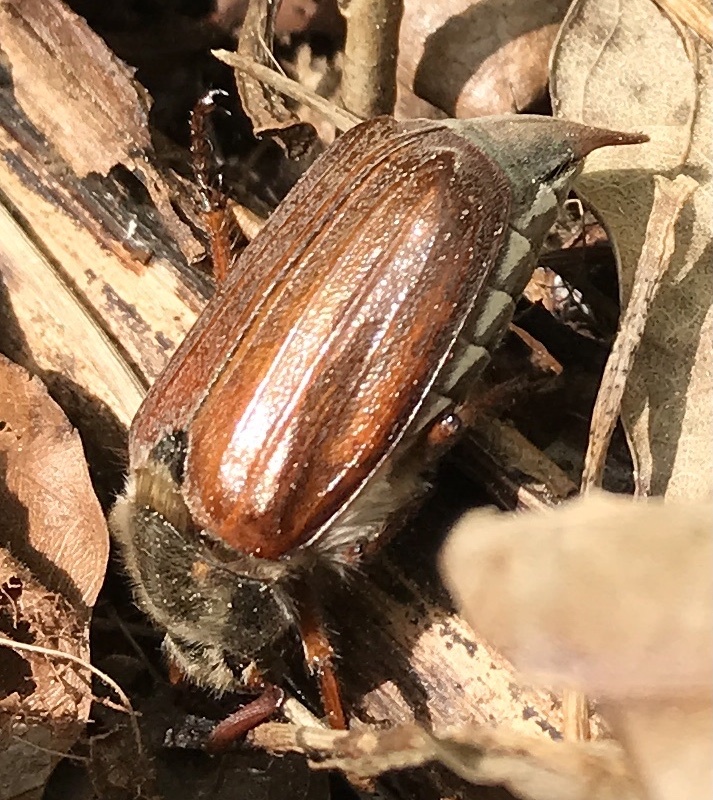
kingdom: Animalia
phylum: Arthropoda
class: Insecta
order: Coleoptera
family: Scarabaeidae
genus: Melolontha
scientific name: Melolontha melolontha
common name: Cockchafer maybeetle
